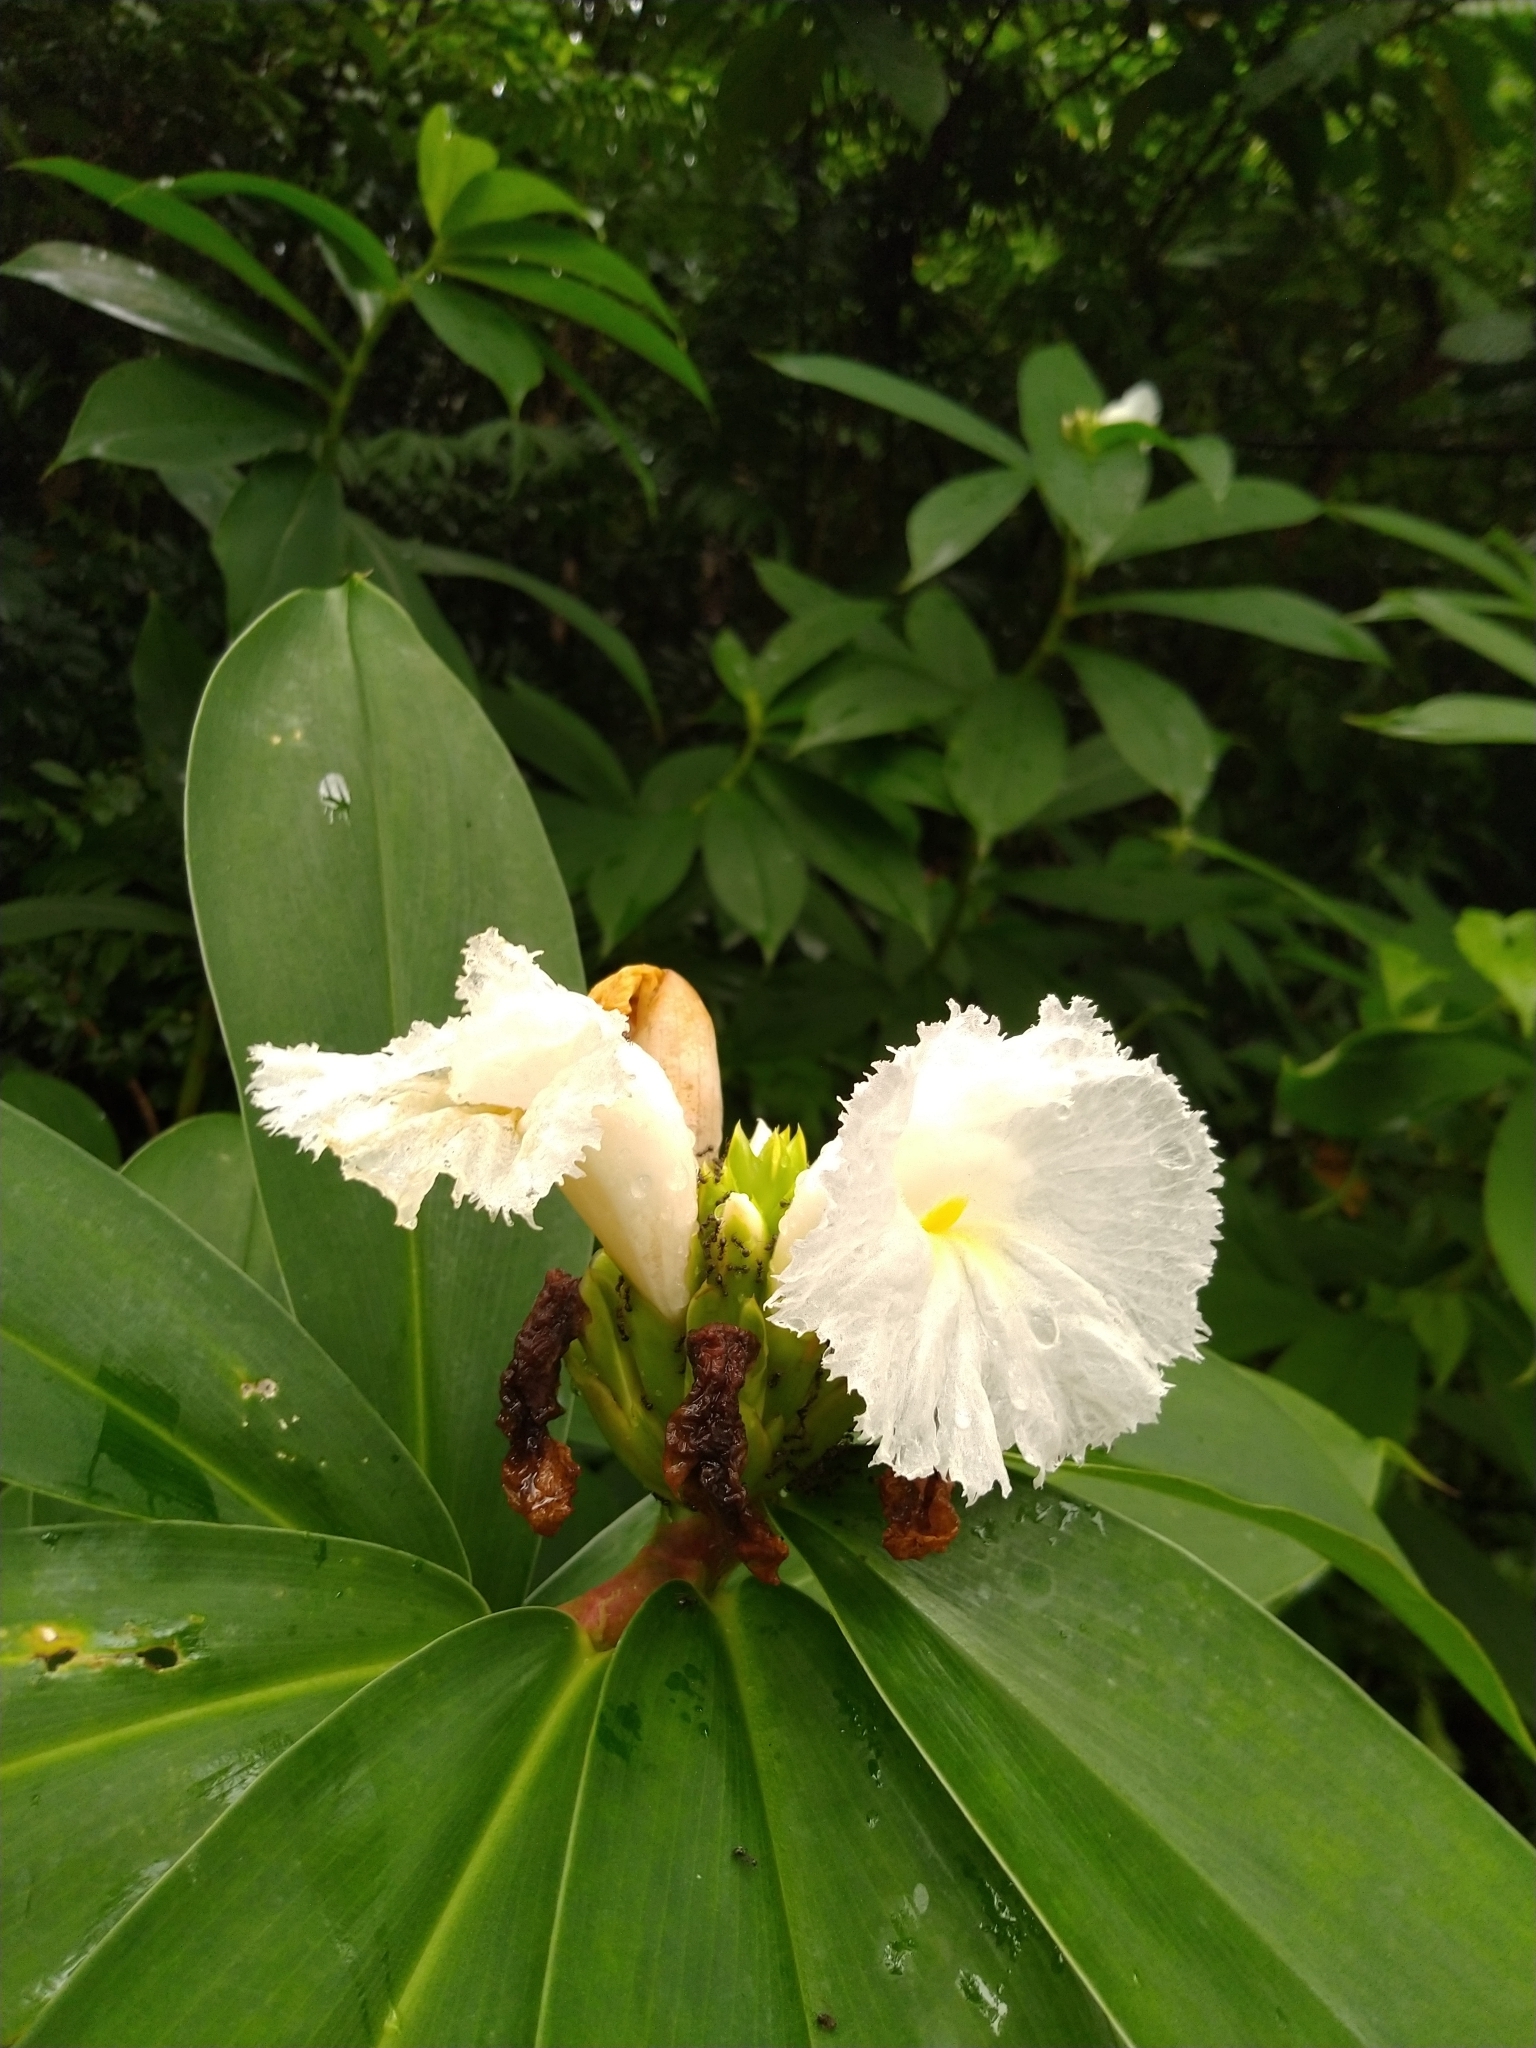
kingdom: Plantae
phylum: Tracheophyta
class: Liliopsida
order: Zingiberales
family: Costaceae
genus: Hellenia
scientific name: Hellenia speciosa
